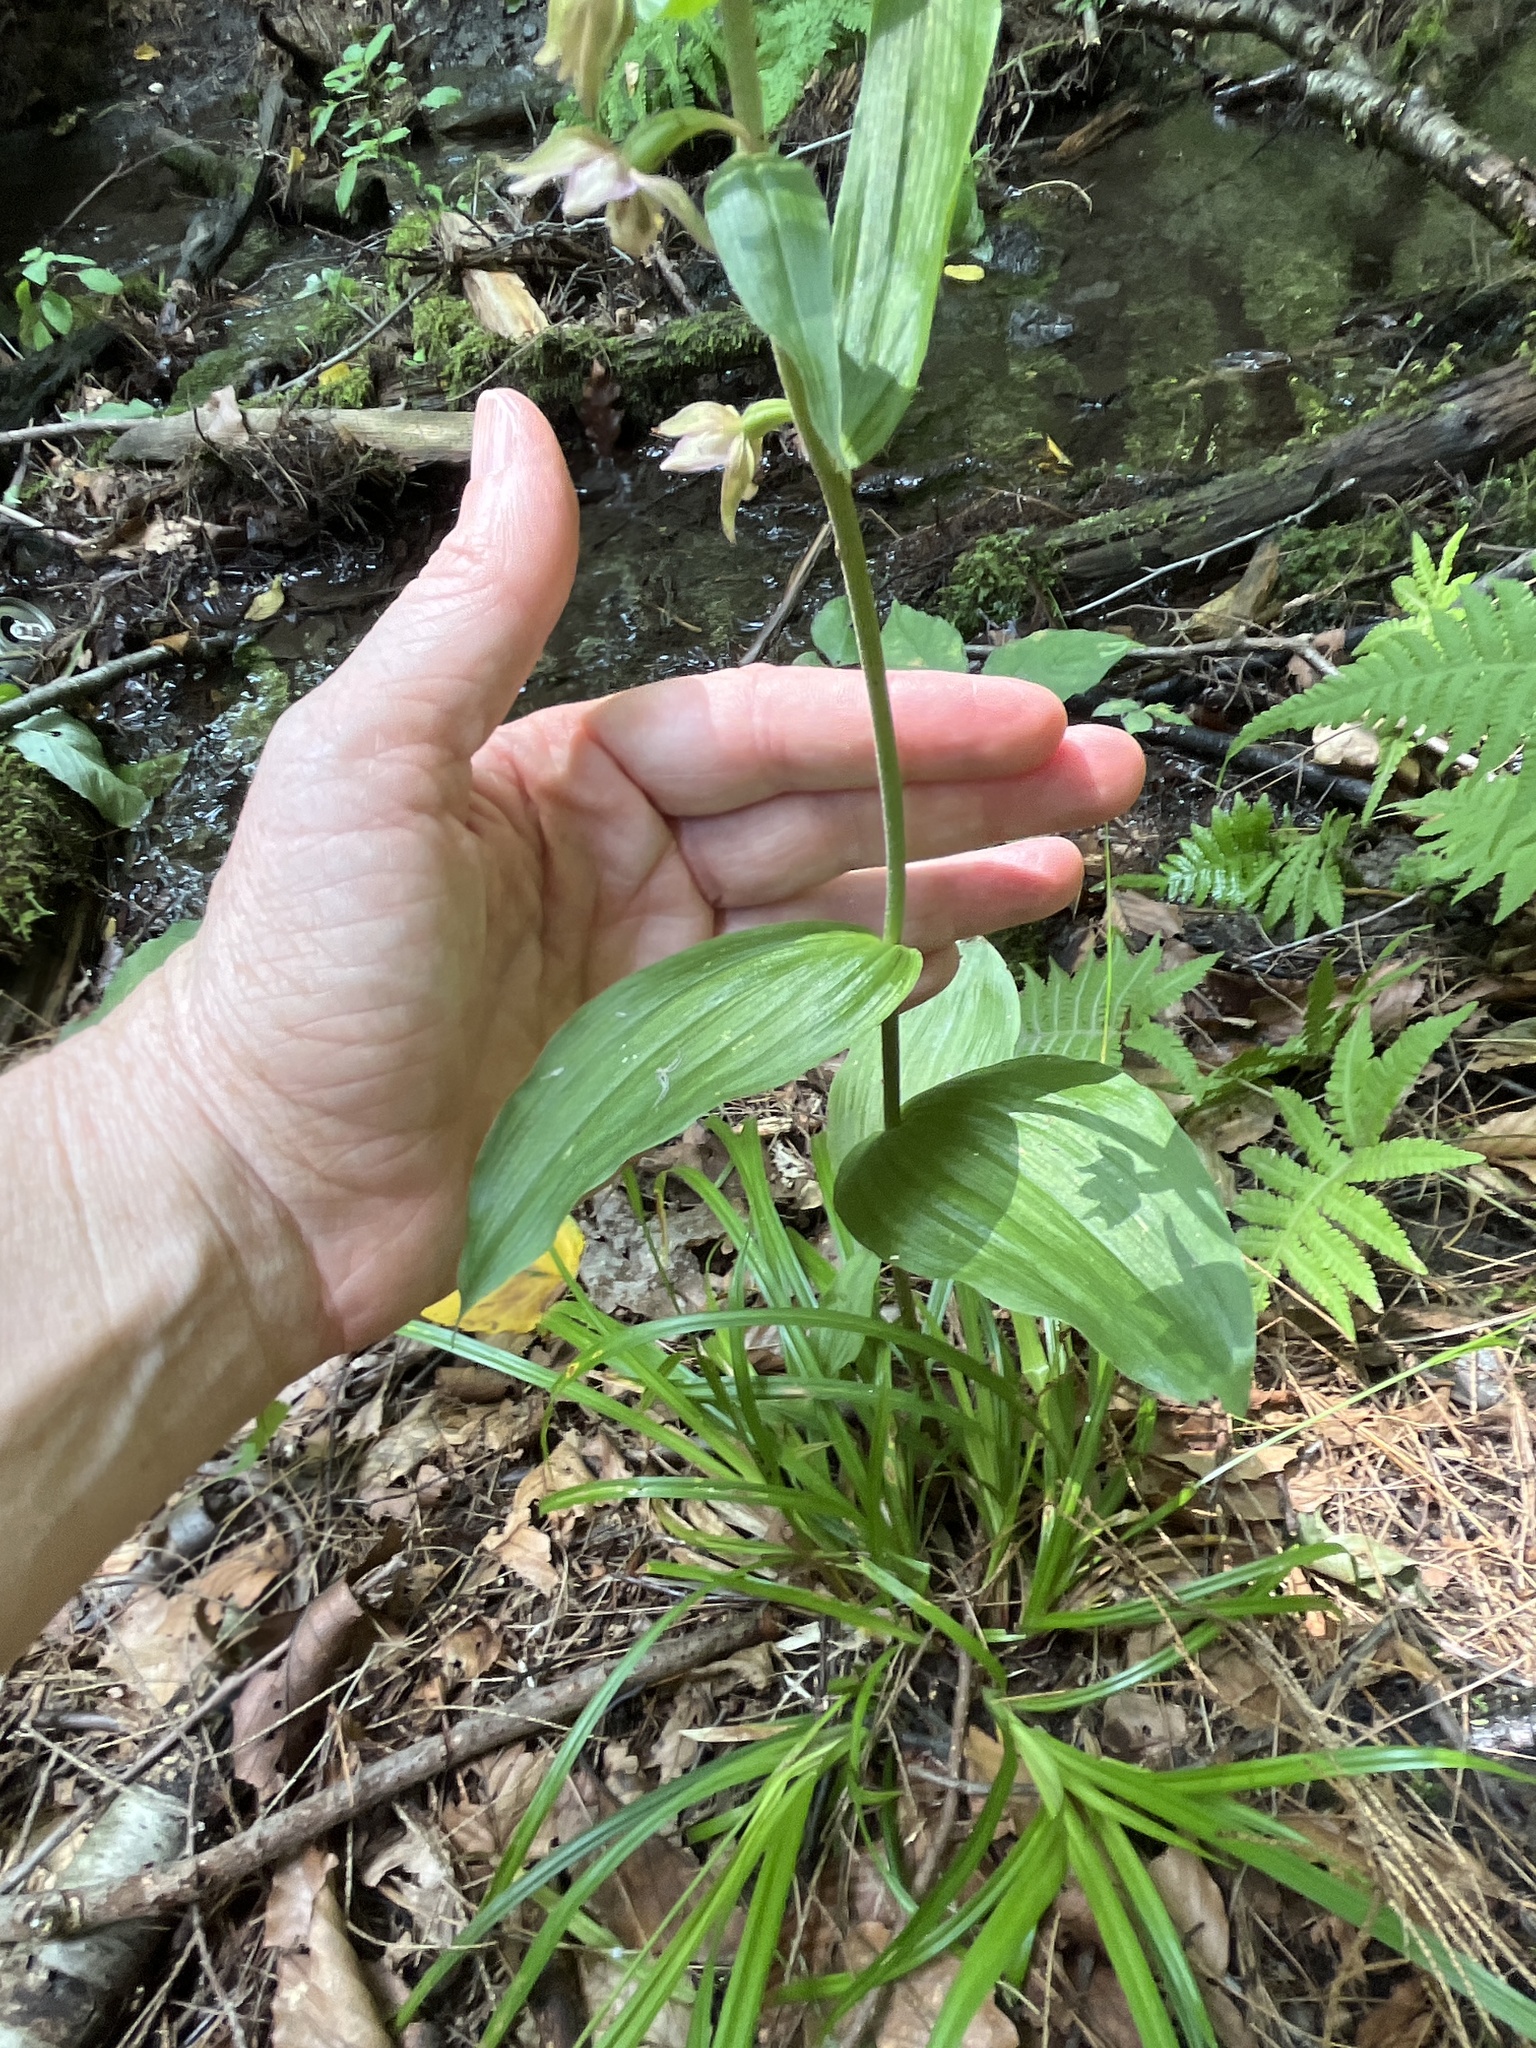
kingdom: Plantae
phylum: Tracheophyta
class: Liliopsida
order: Asparagales
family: Orchidaceae
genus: Epipactis
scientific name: Epipactis helleborine
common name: Broad-leaved helleborine
